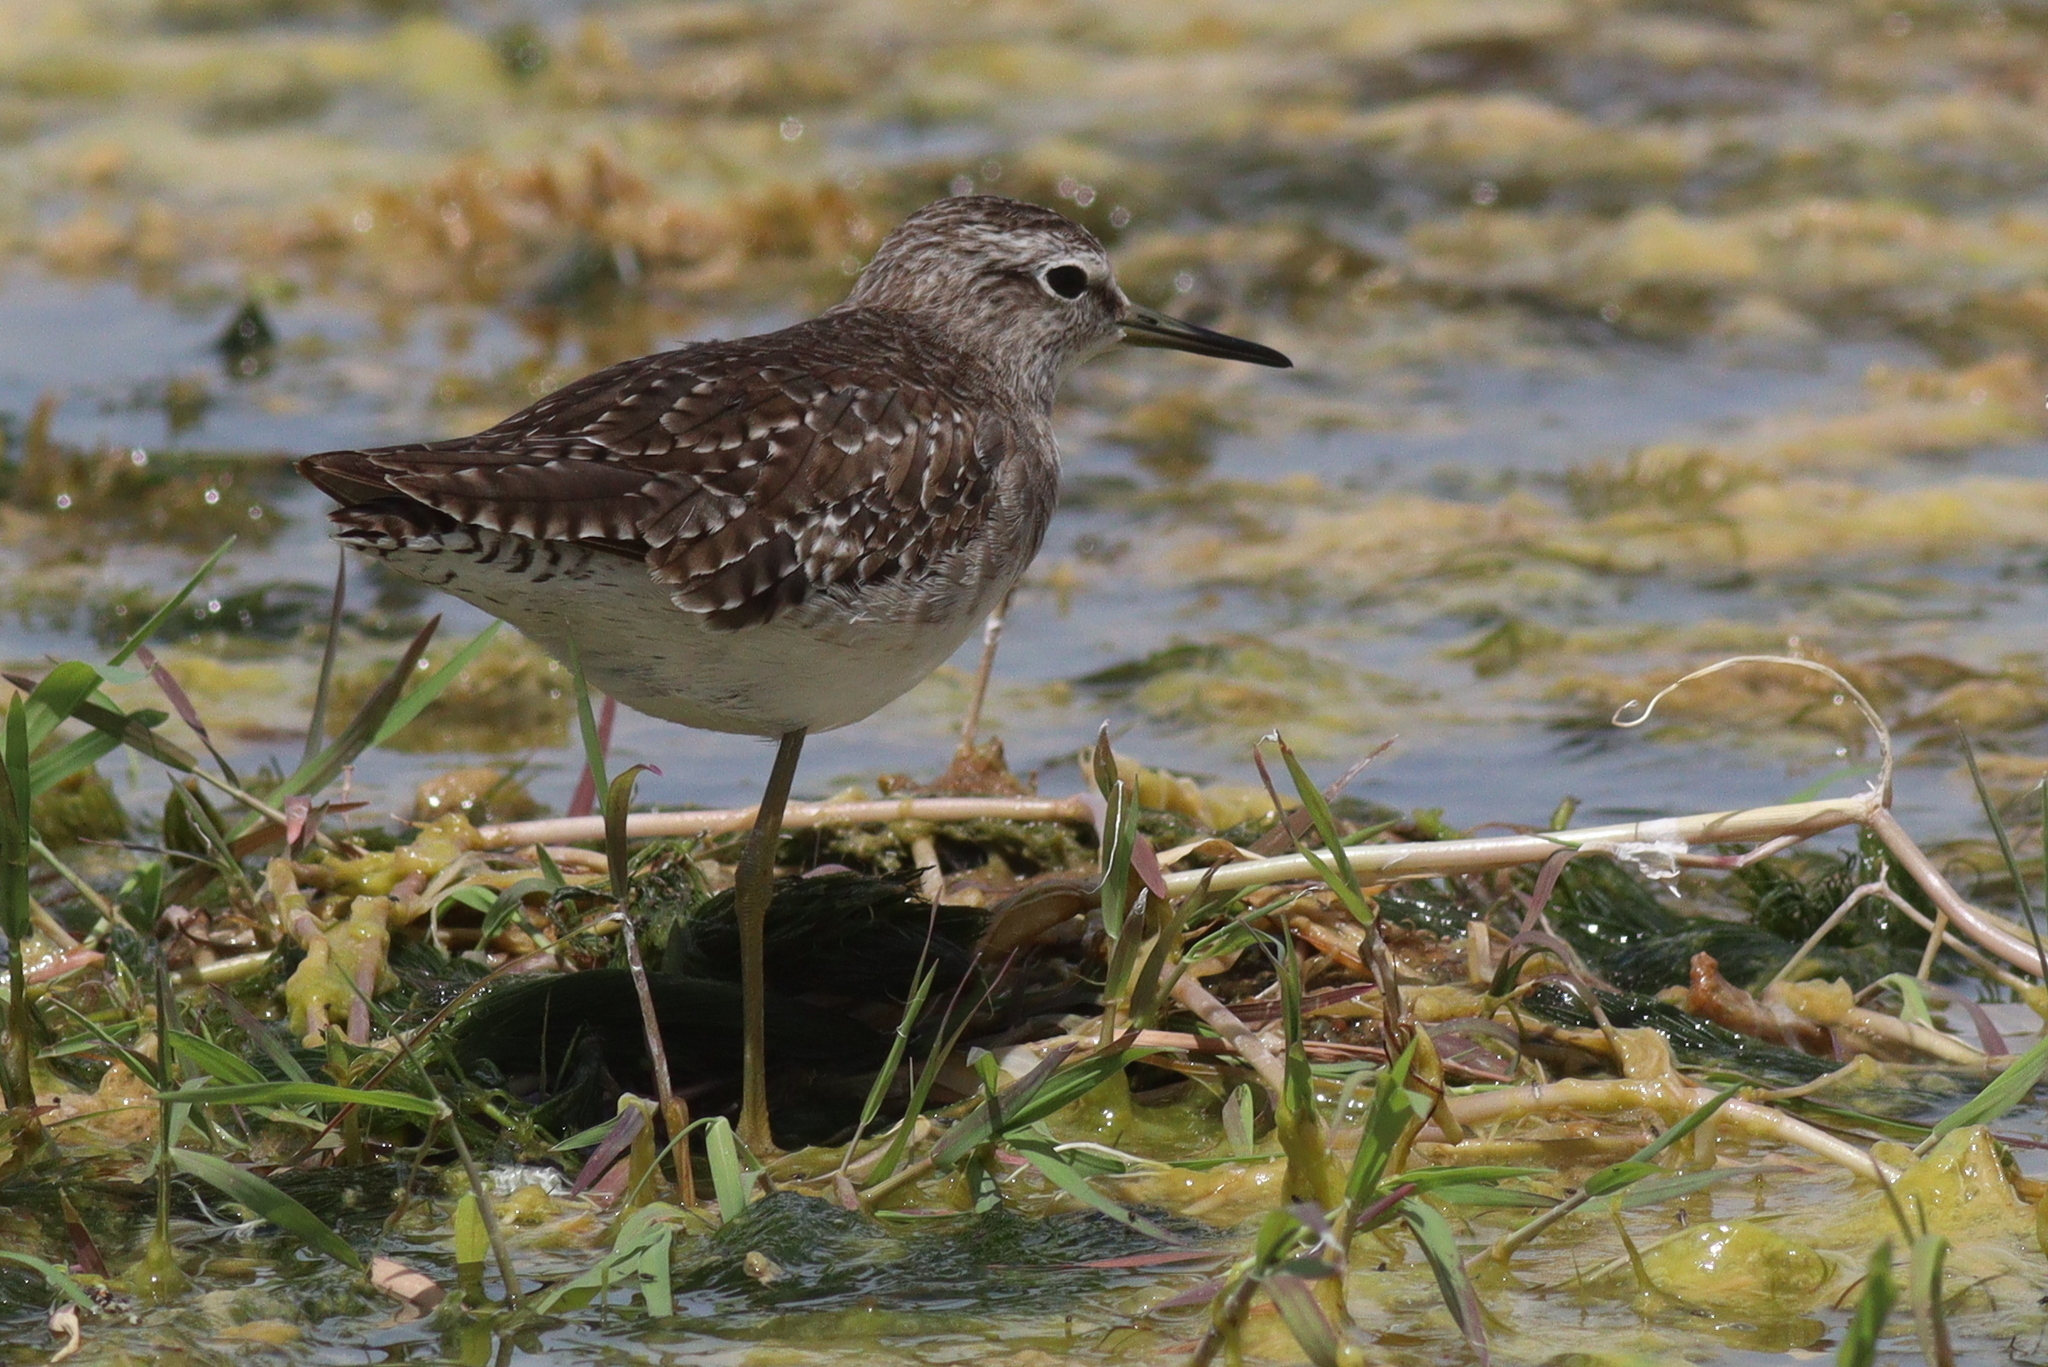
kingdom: Animalia
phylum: Chordata
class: Aves
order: Charadriiformes
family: Scolopacidae
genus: Tringa
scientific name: Tringa glareola
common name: Wood sandpiper
